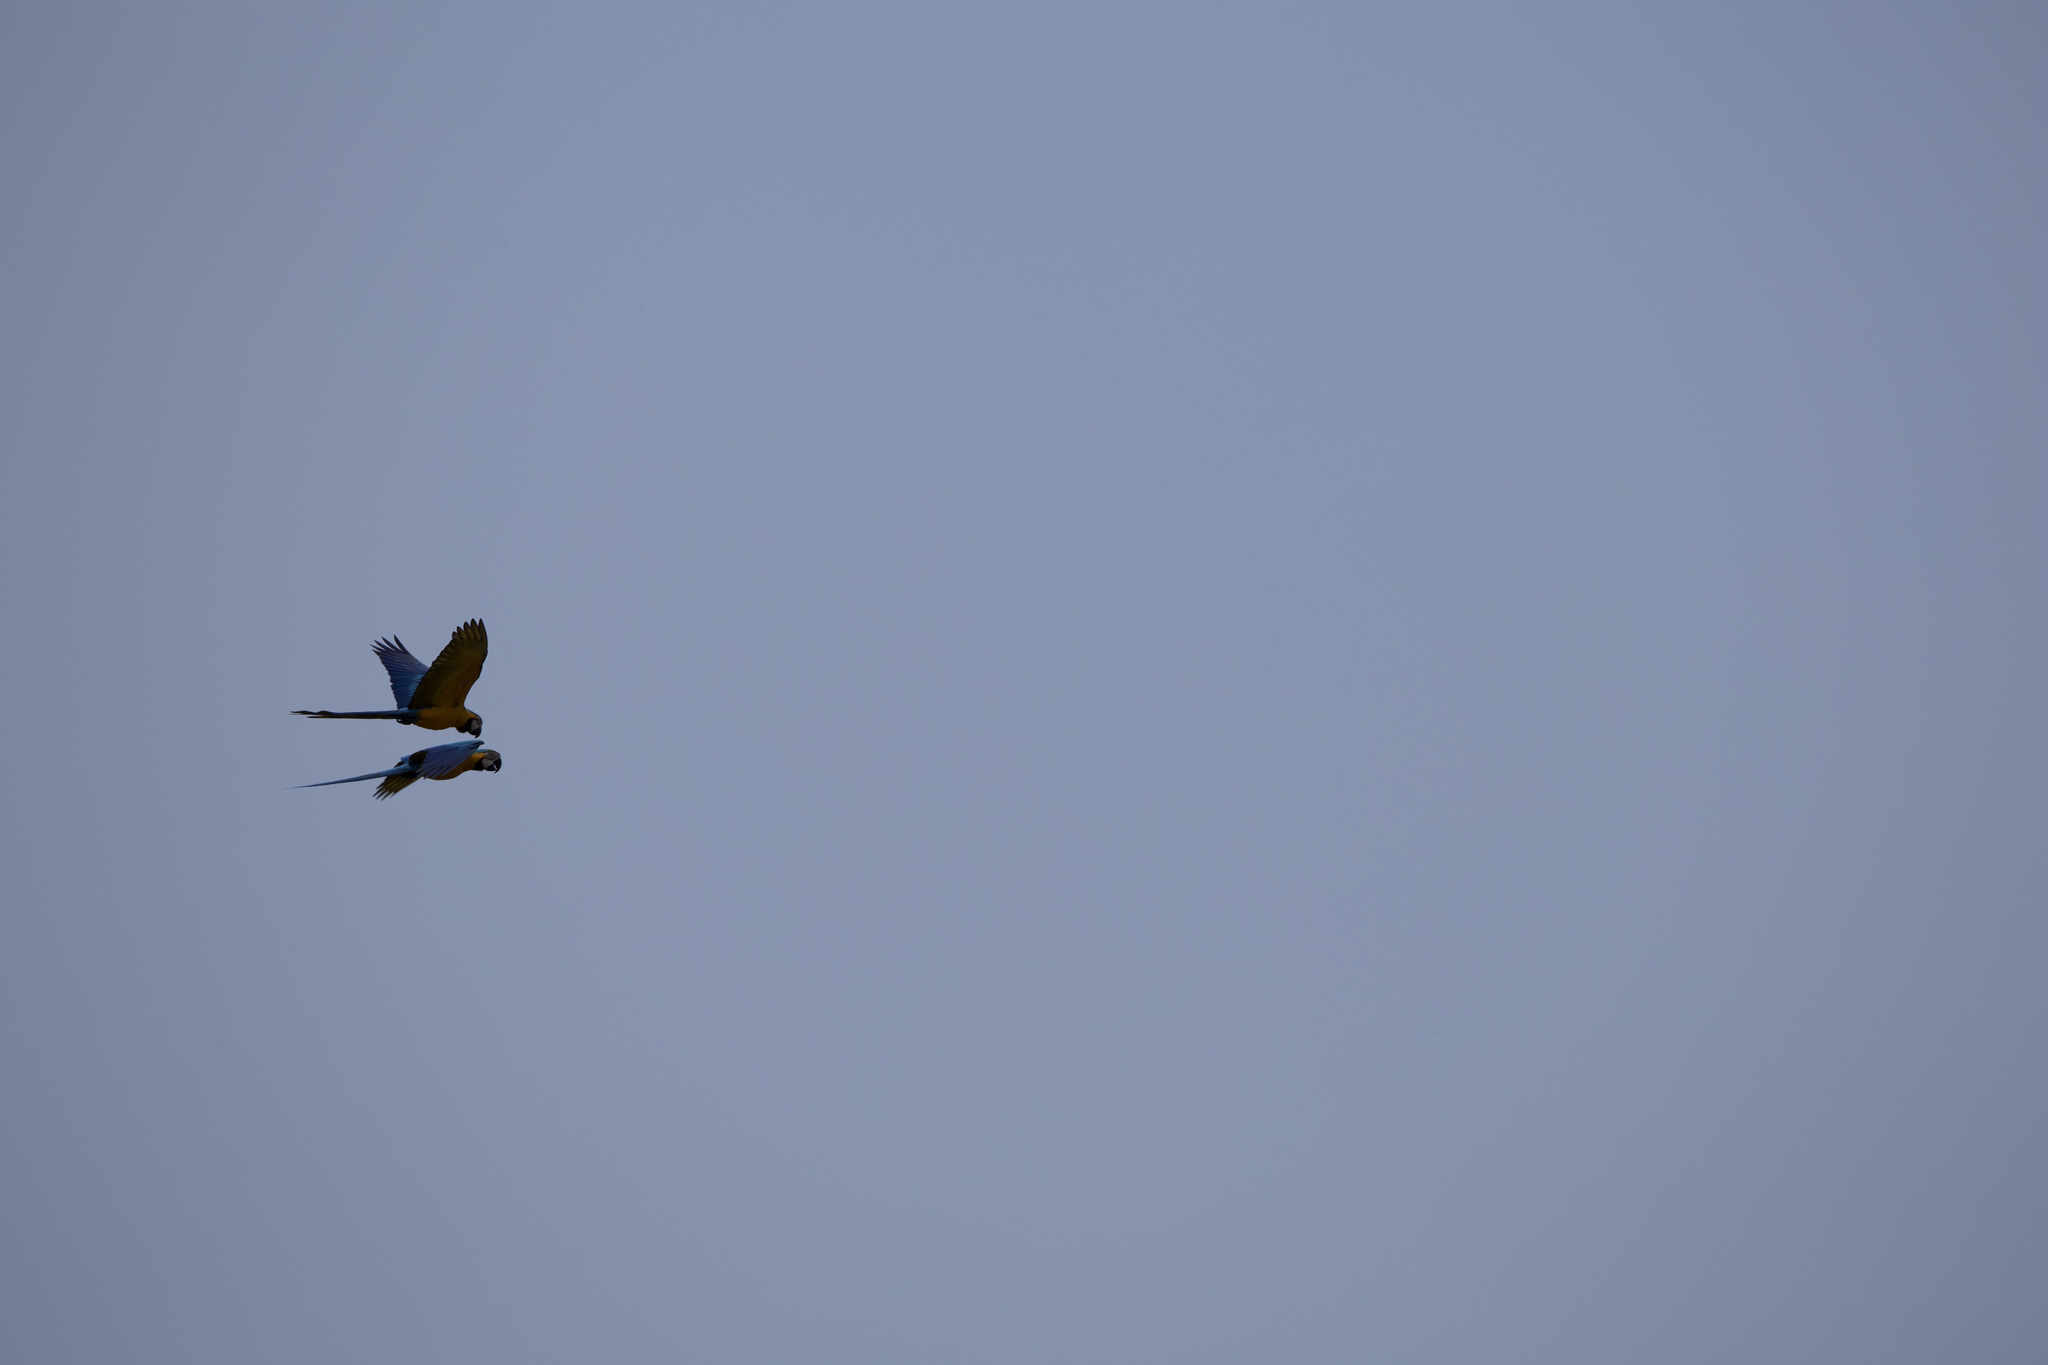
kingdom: Animalia
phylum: Chordata
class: Aves
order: Psittaciformes
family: Psittacidae
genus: Ara
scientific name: Ara ararauna
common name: Blue-and-yellow macaw
